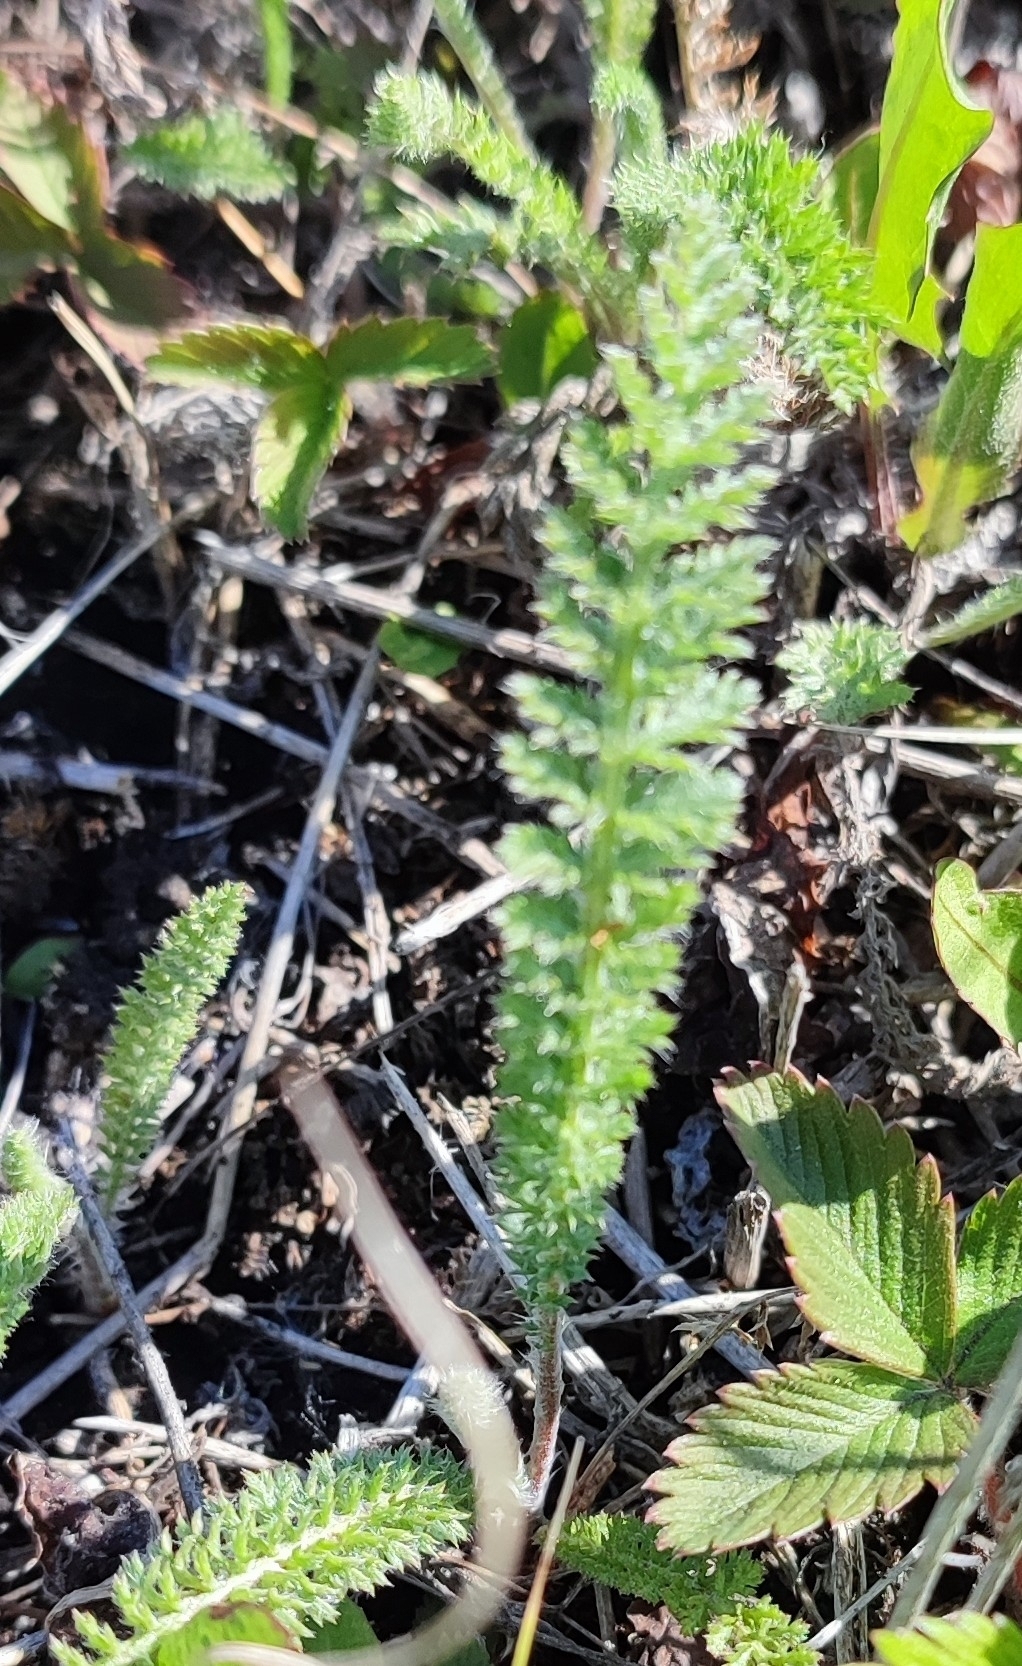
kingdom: Plantae
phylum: Tracheophyta
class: Magnoliopsida
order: Asterales
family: Asteraceae
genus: Achillea
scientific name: Achillea millefolium
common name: Yarrow
